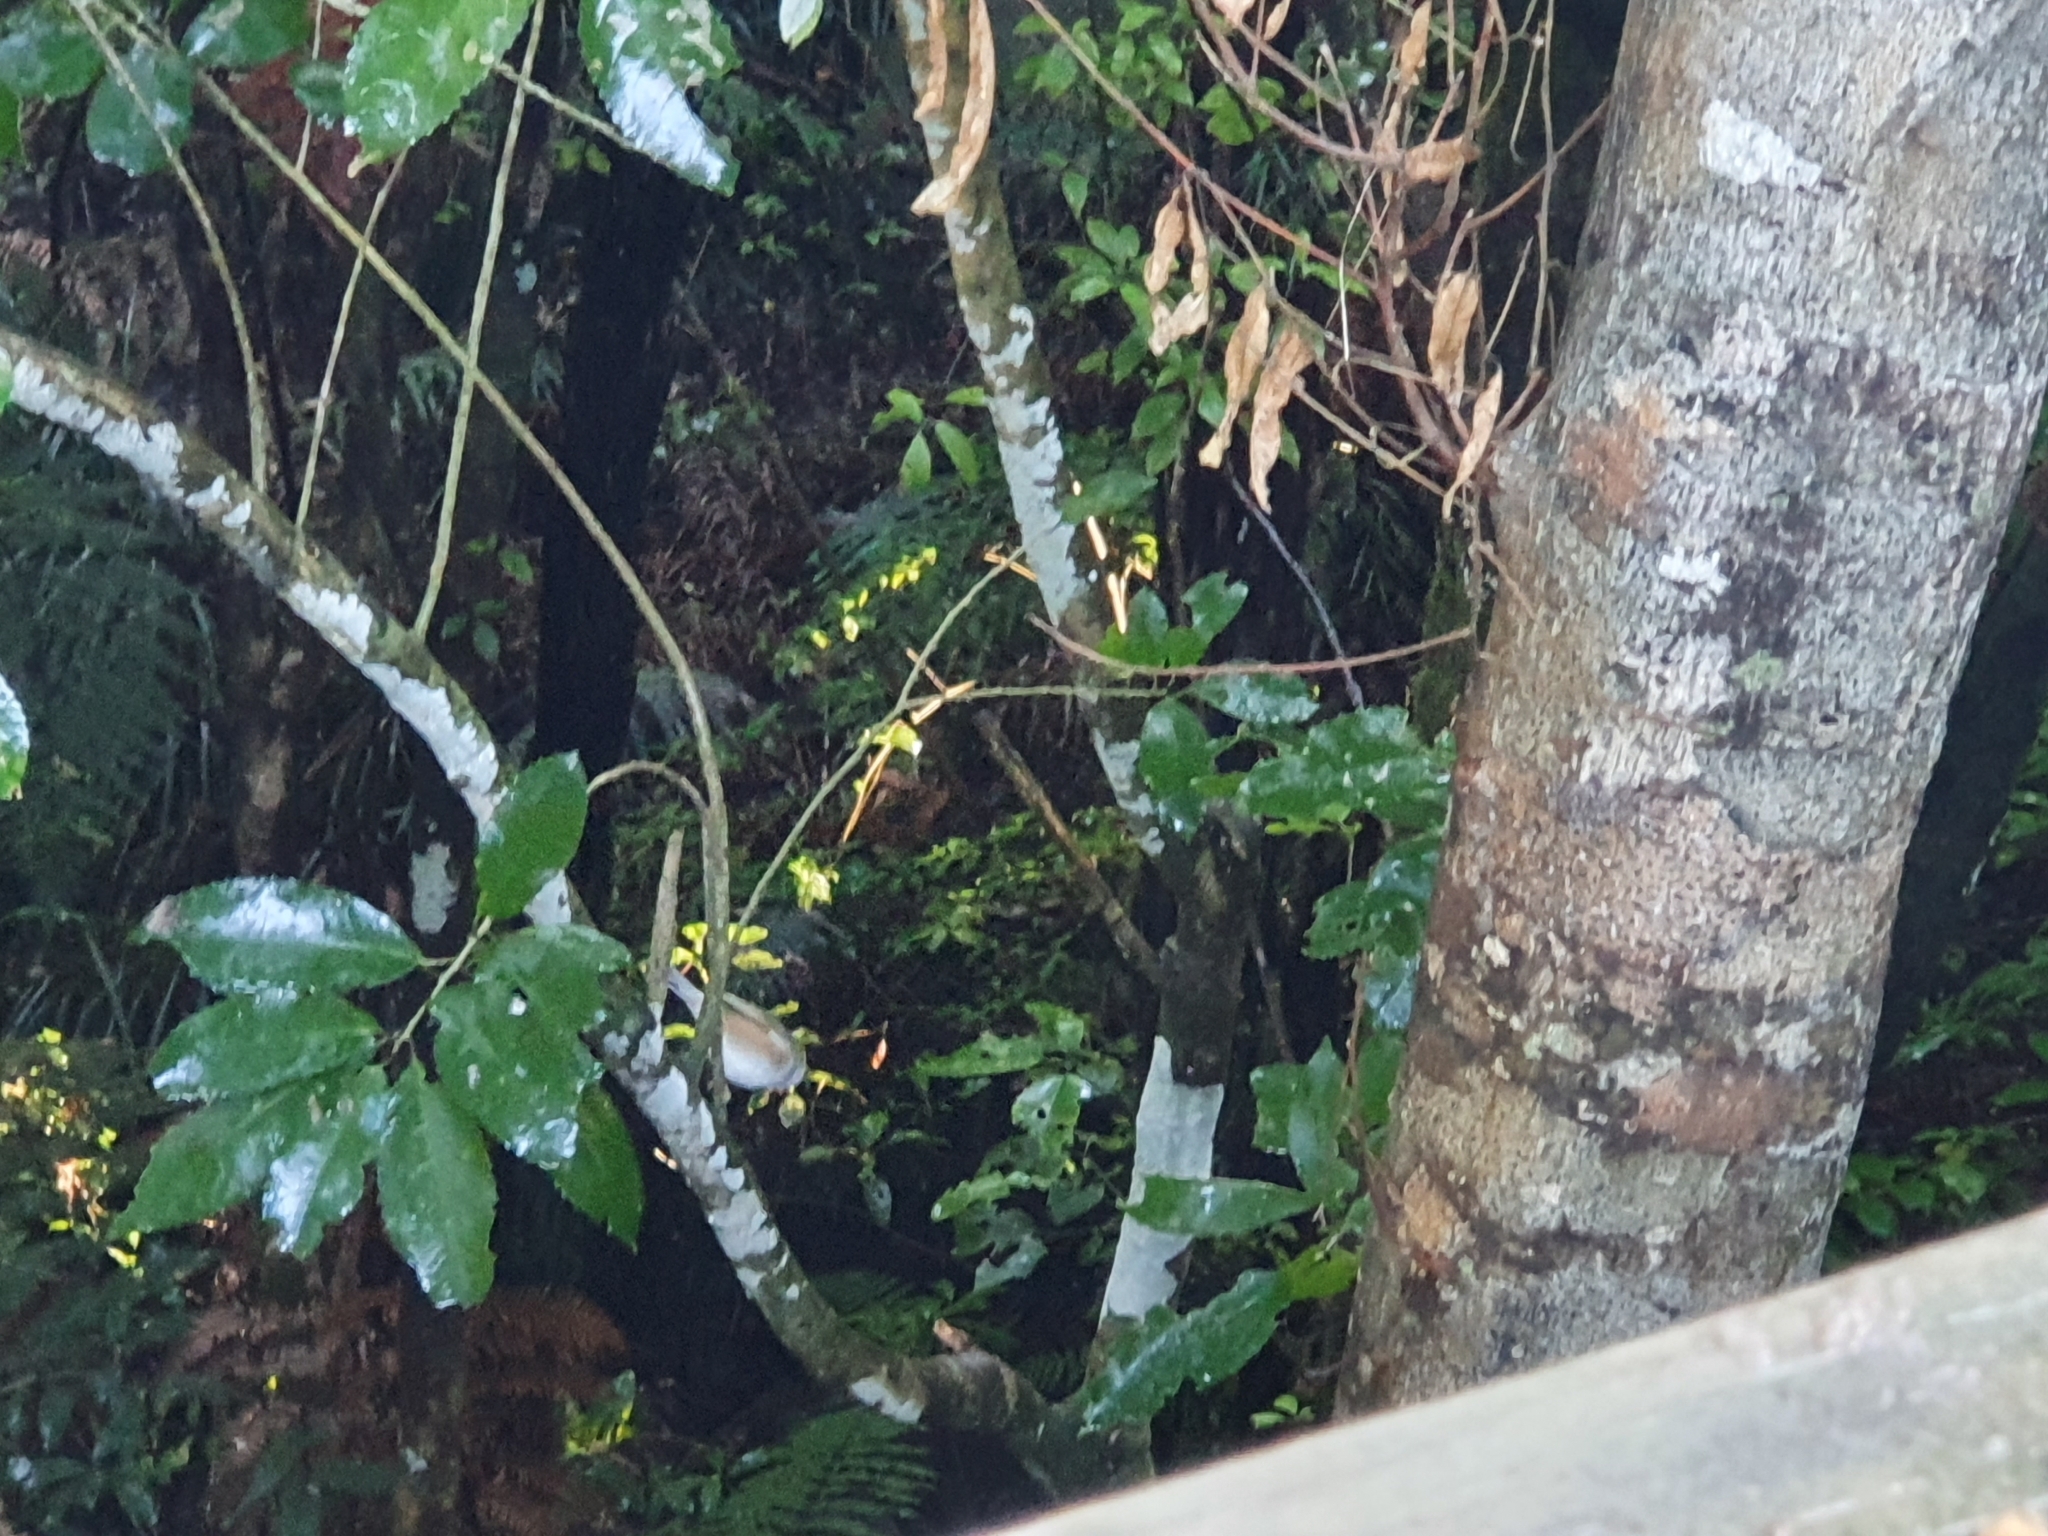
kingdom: Animalia
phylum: Chordata
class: Aves
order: Passeriformes
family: Zosteropidae
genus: Zosterops
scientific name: Zosterops lateralis
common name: Silvereye
